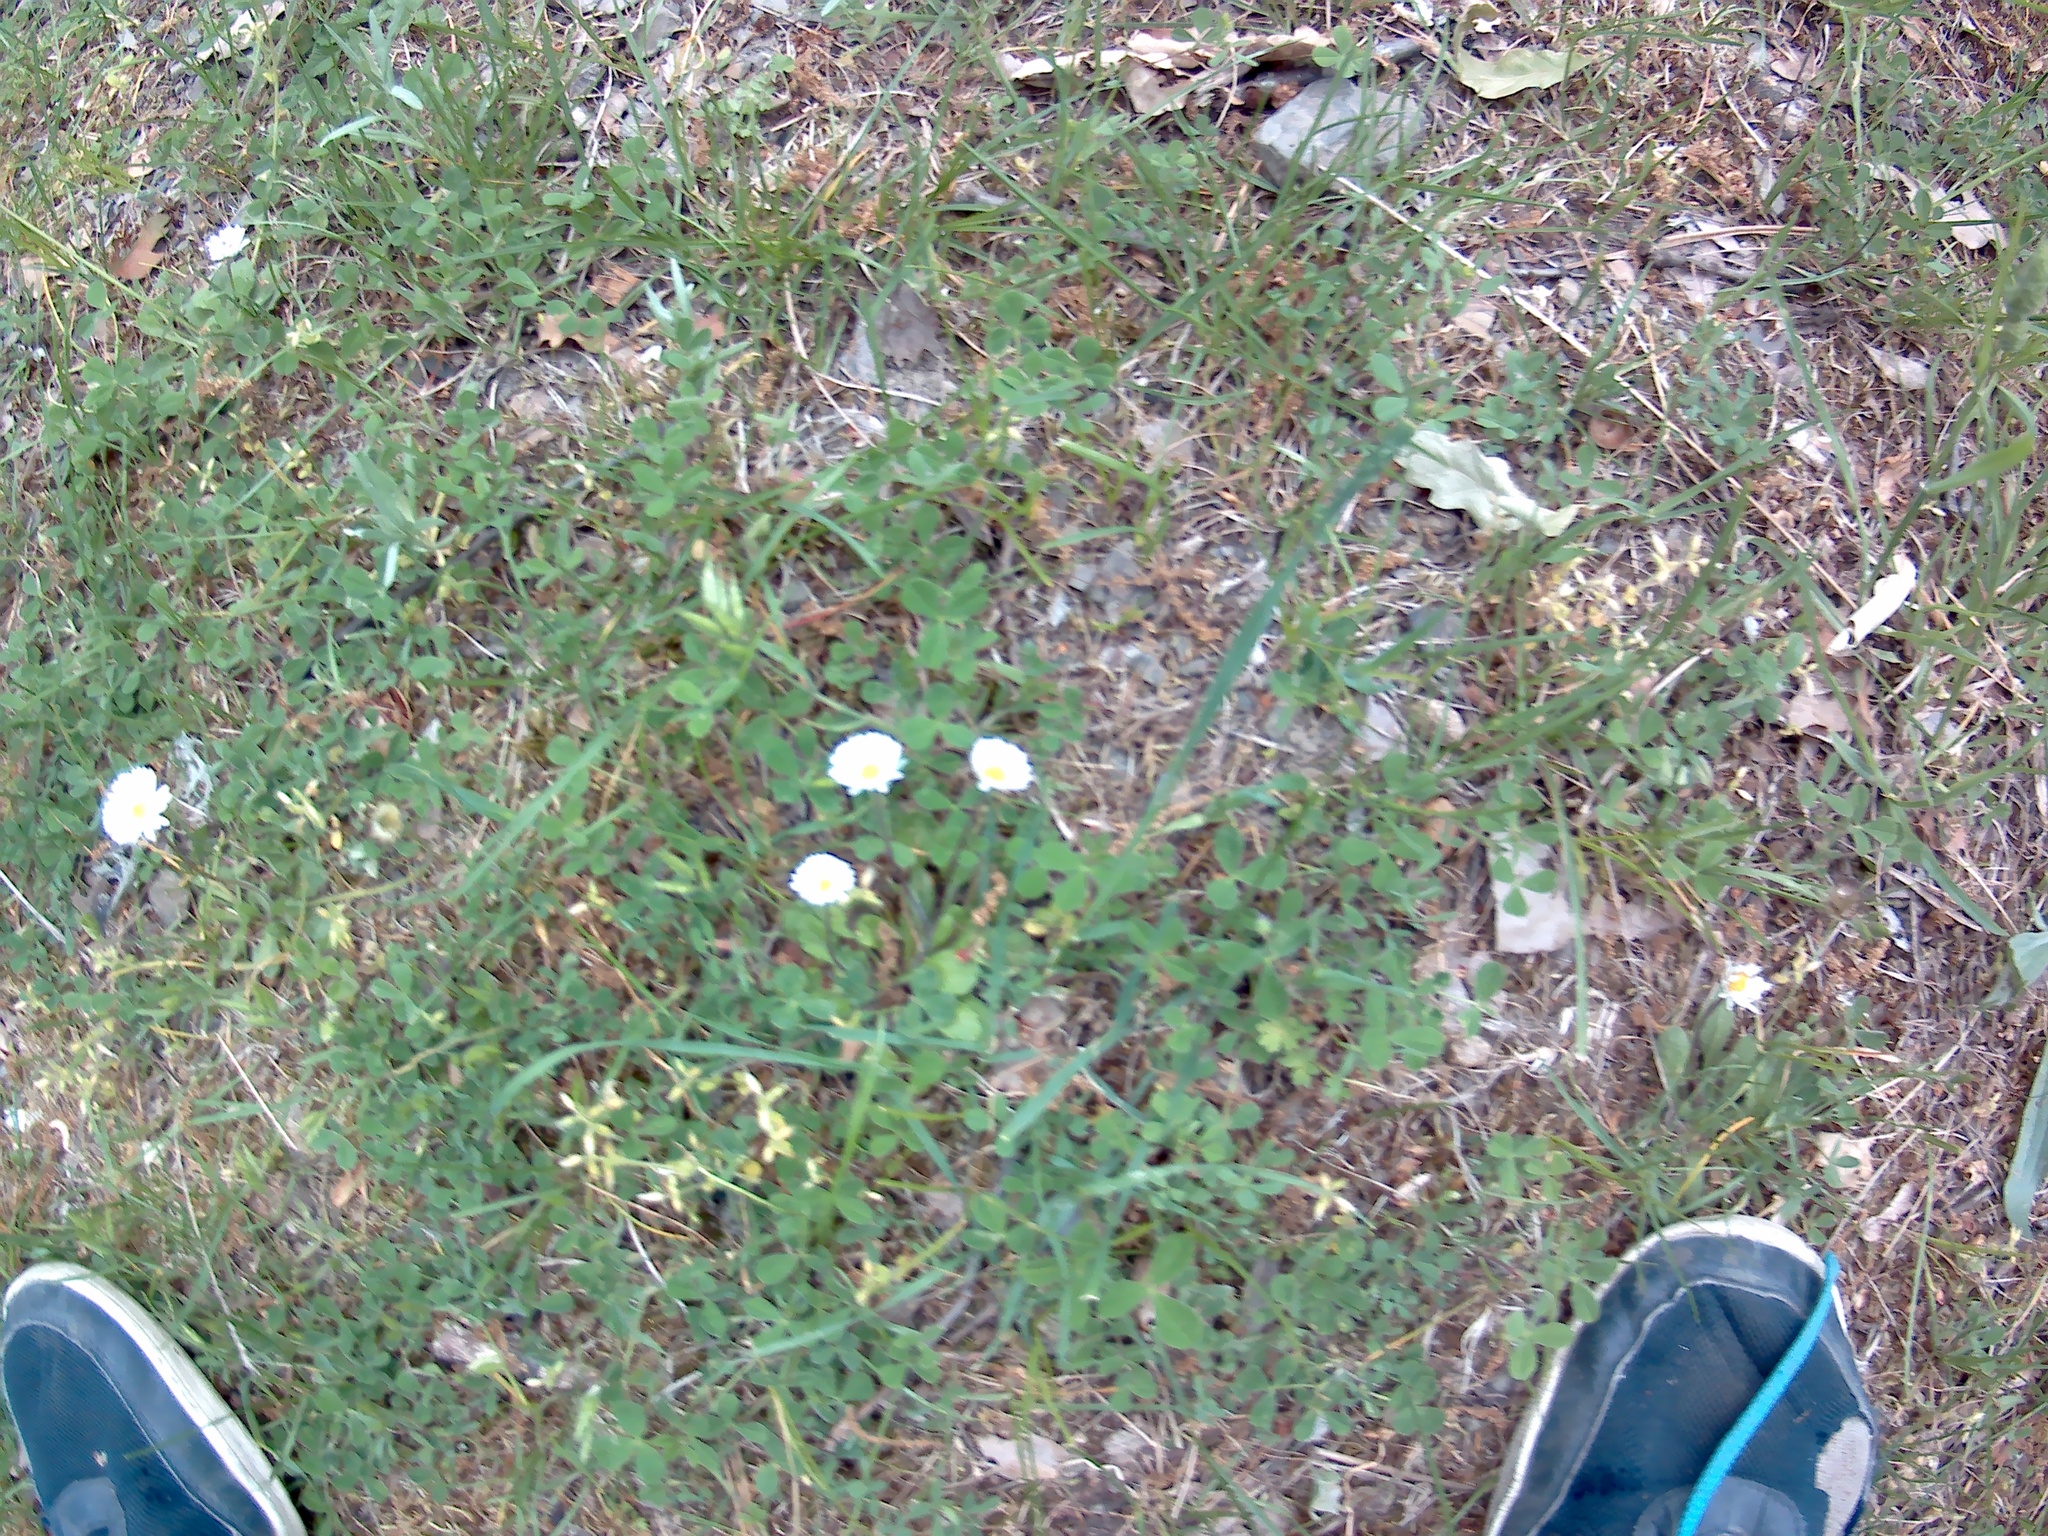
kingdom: Plantae
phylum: Tracheophyta
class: Magnoliopsida
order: Asterales
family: Asteraceae
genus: Bellis
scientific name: Bellis perennis
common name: Lawndaisy
